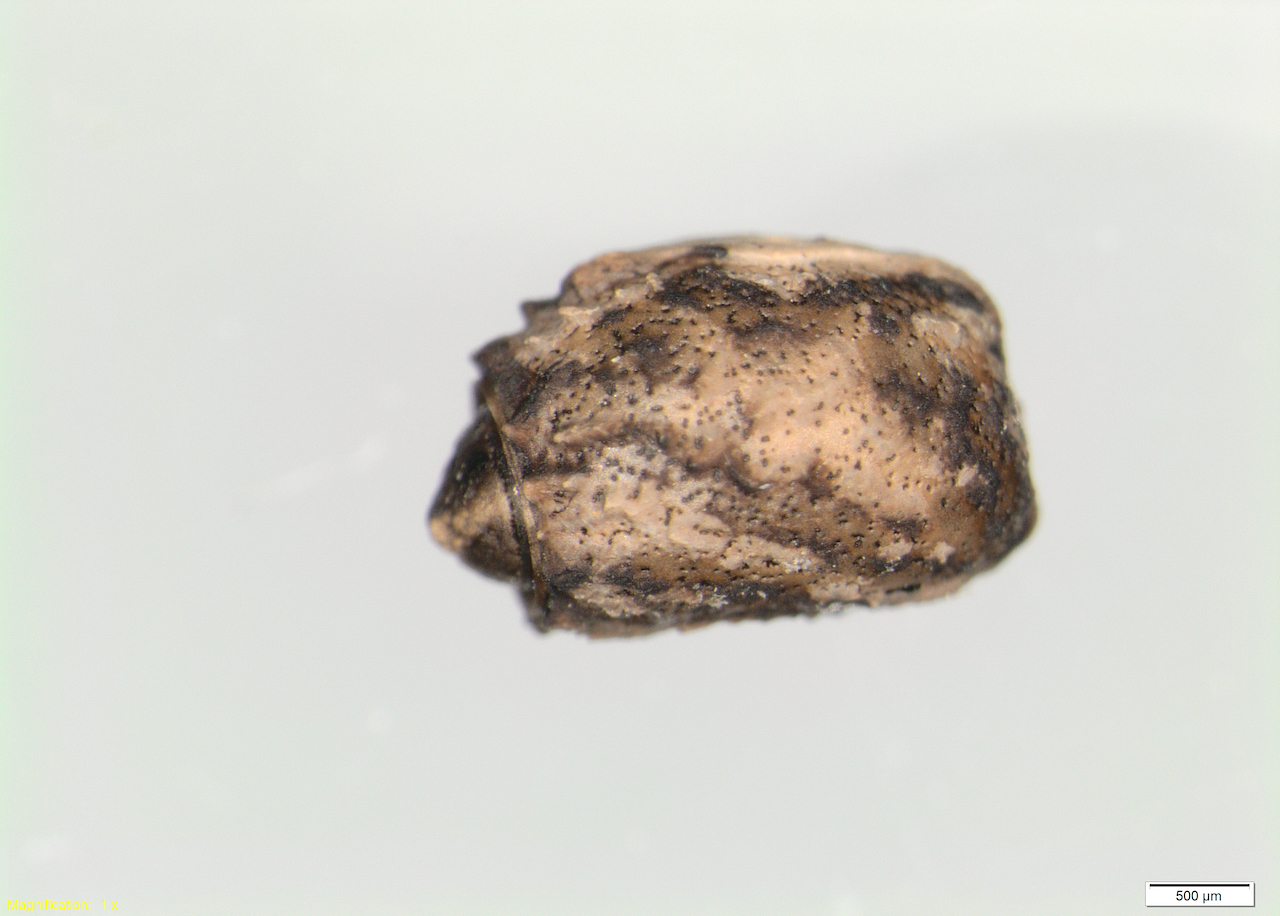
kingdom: Animalia
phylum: Arthropoda
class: Insecta
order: Phasmida
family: Phasmatidae
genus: Clitarchus
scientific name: Clitarchus hookeri
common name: Smooth stick insect
